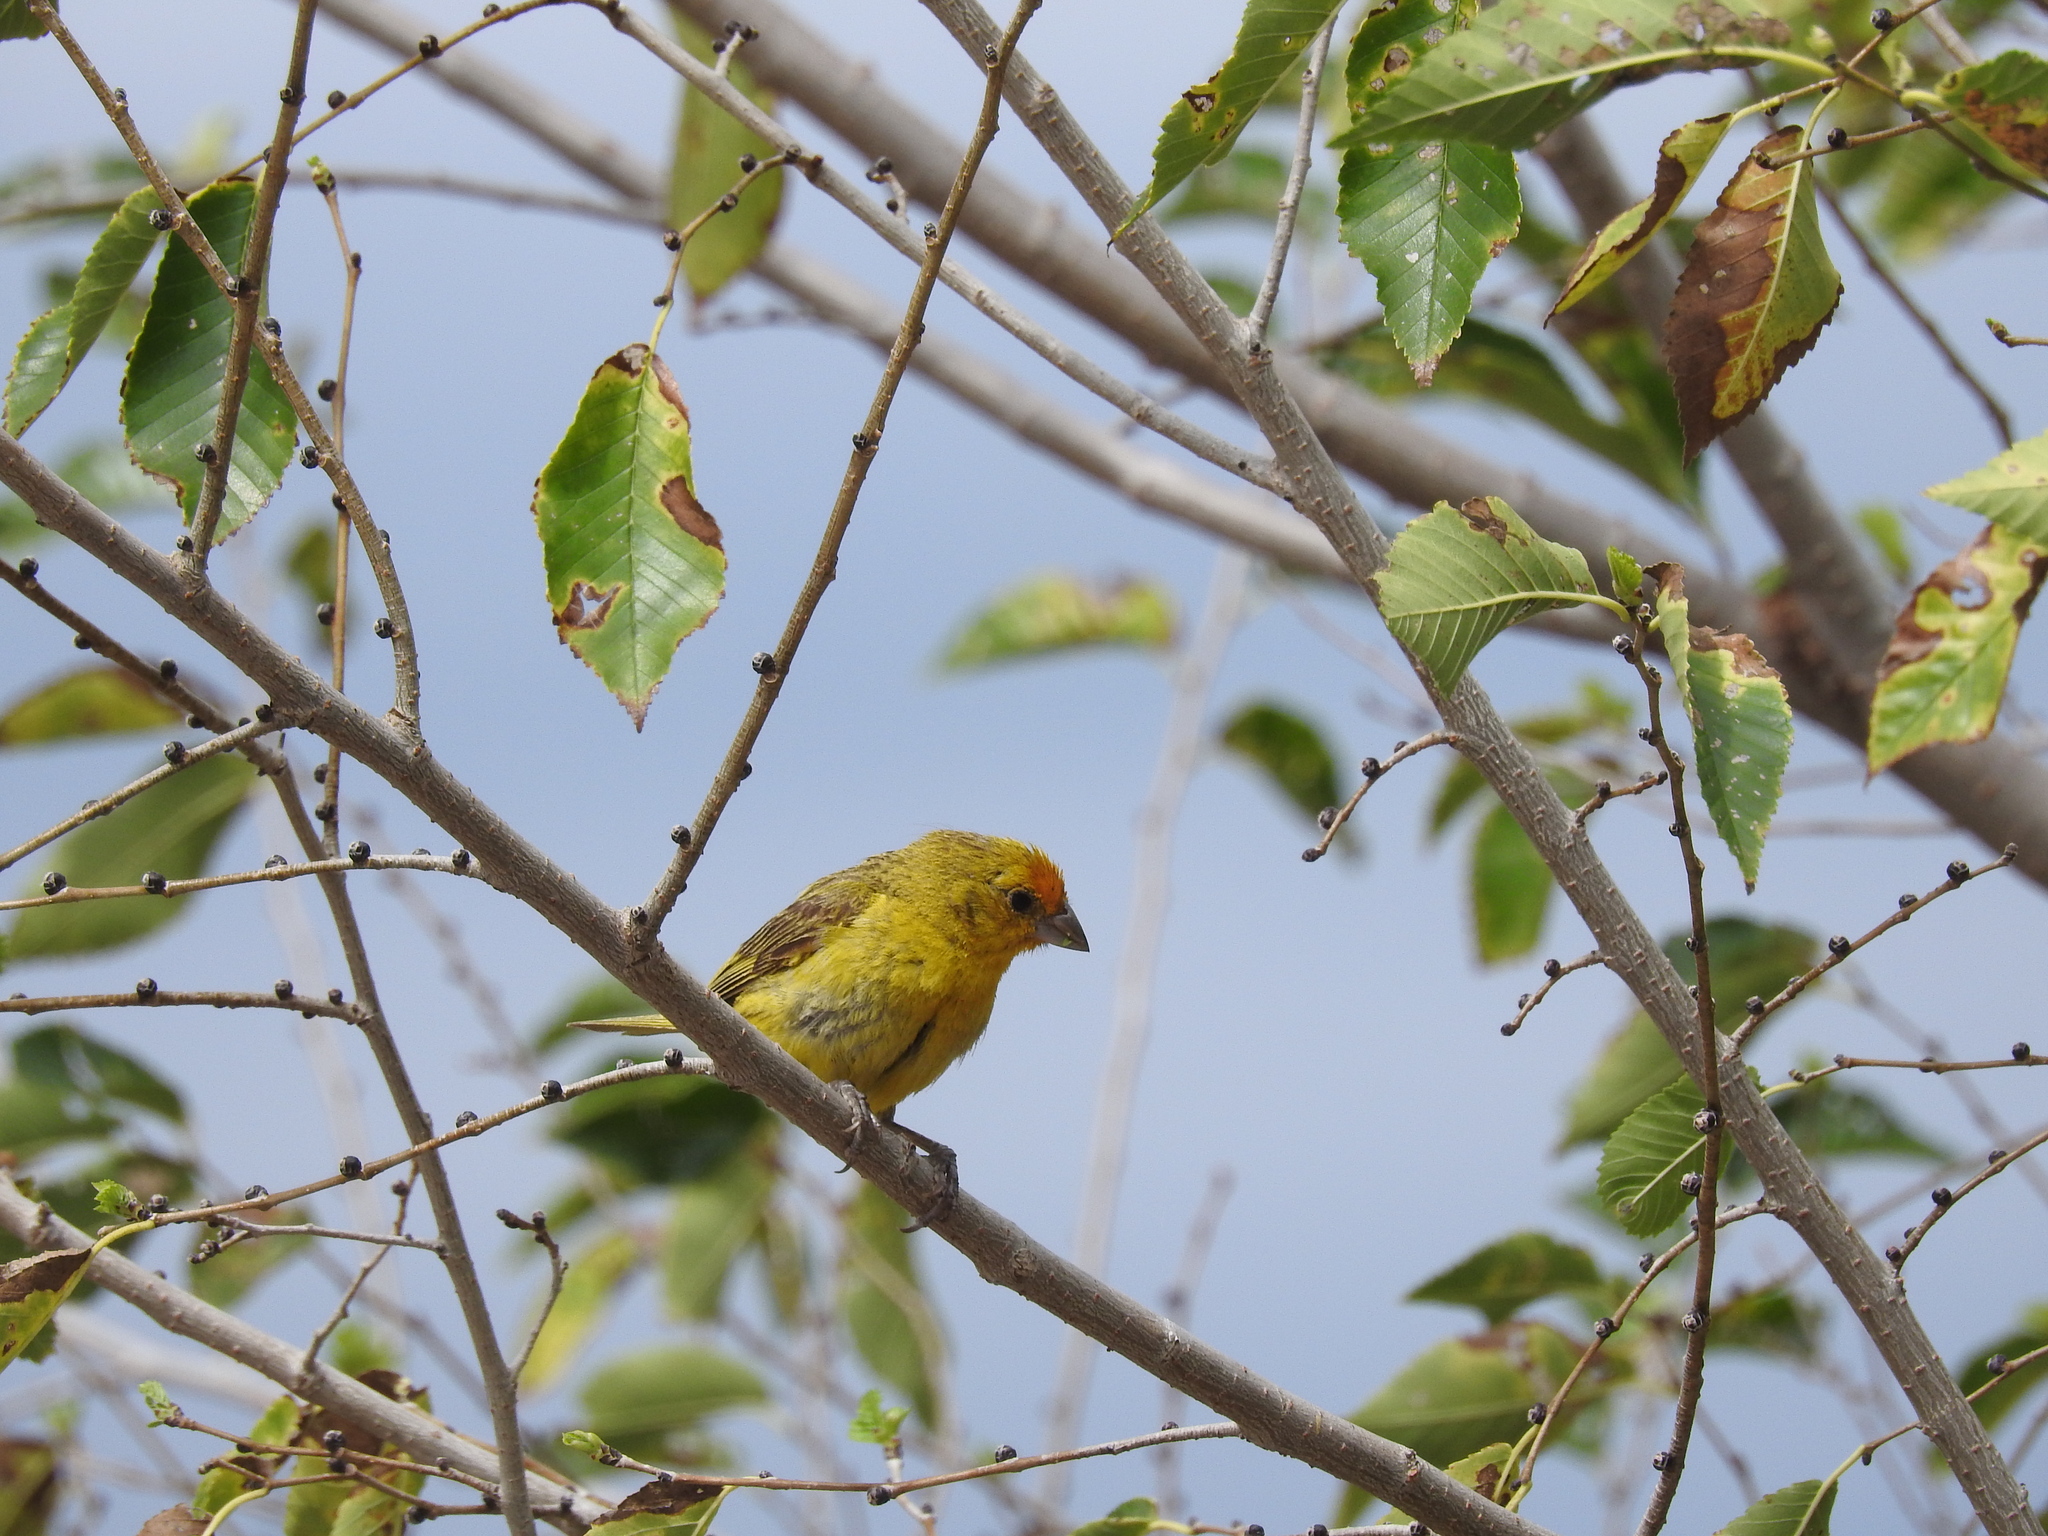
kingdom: Animalia
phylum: Chordata
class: Aves
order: Passeriformes
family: Thraupidae
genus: Sicalis
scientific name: Sicalis flaveola
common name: Saffron finch
